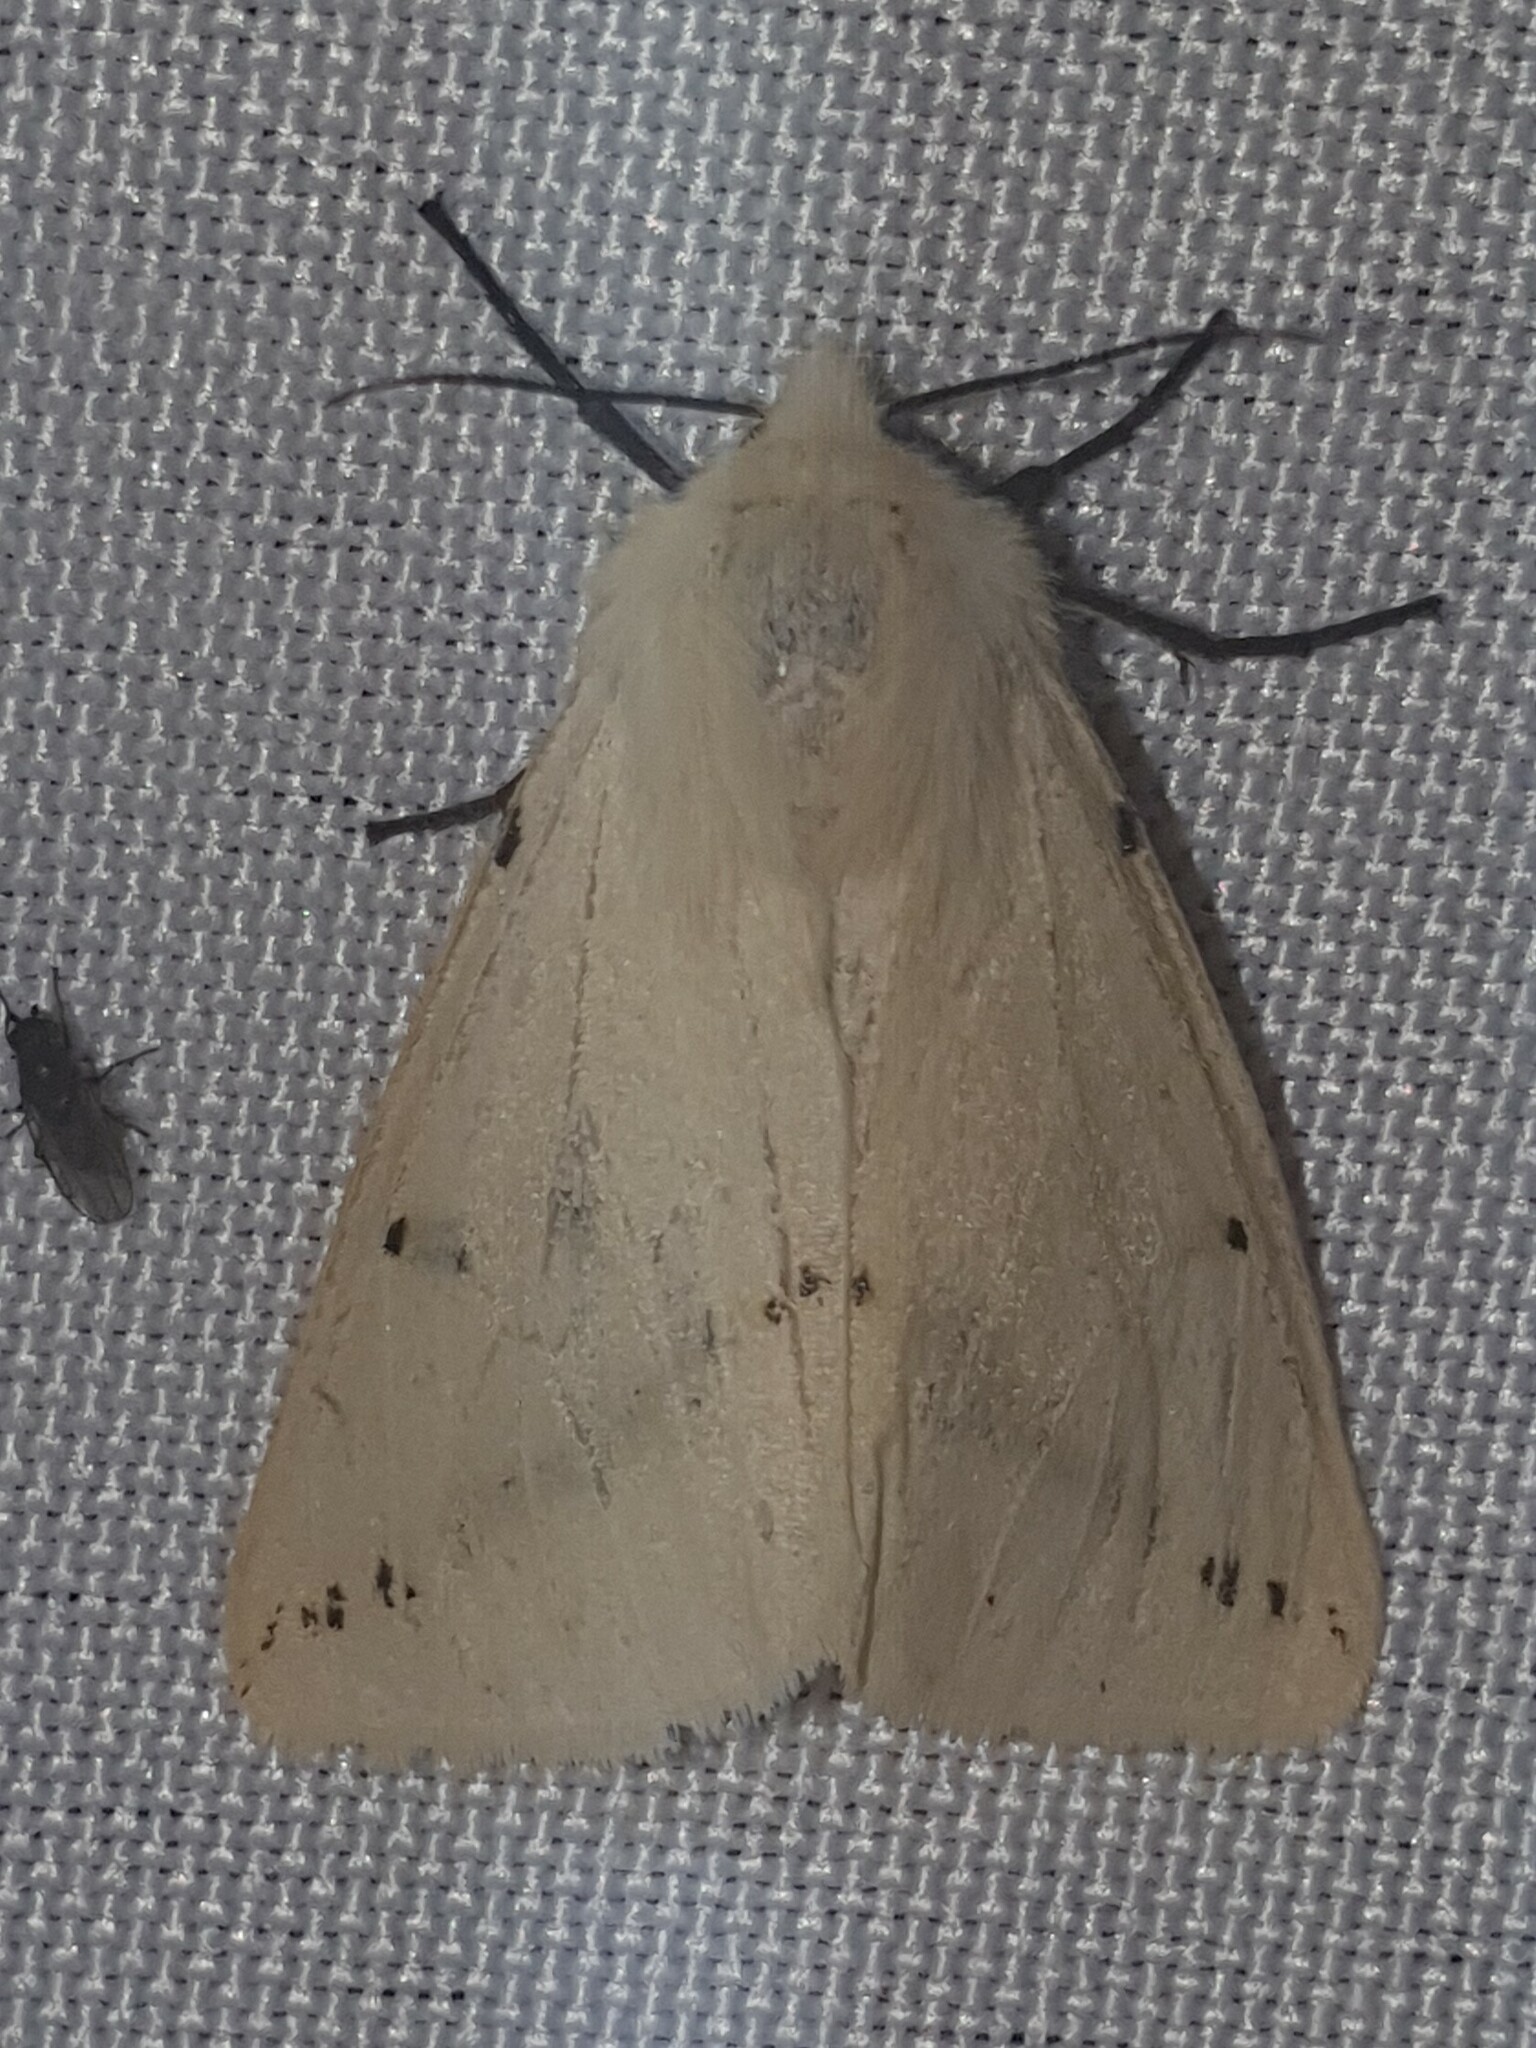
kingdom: Animalia
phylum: Arthropoda
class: Insecta
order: Lepidoptera
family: Erebidae
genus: Spilarctia
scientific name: Spilarctia lutea
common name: Buff ermine
